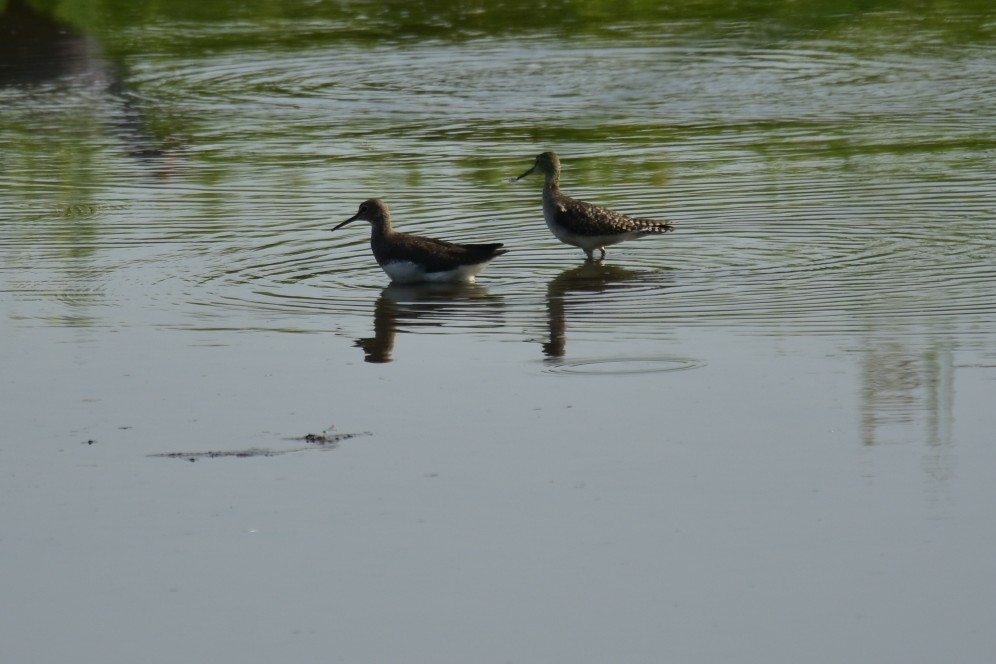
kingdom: Animalia
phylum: Chordata
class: Aves
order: Charadriiformes
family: Scolopacidae
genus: Tringa
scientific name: Tringa glareola
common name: Wood sandpiper
